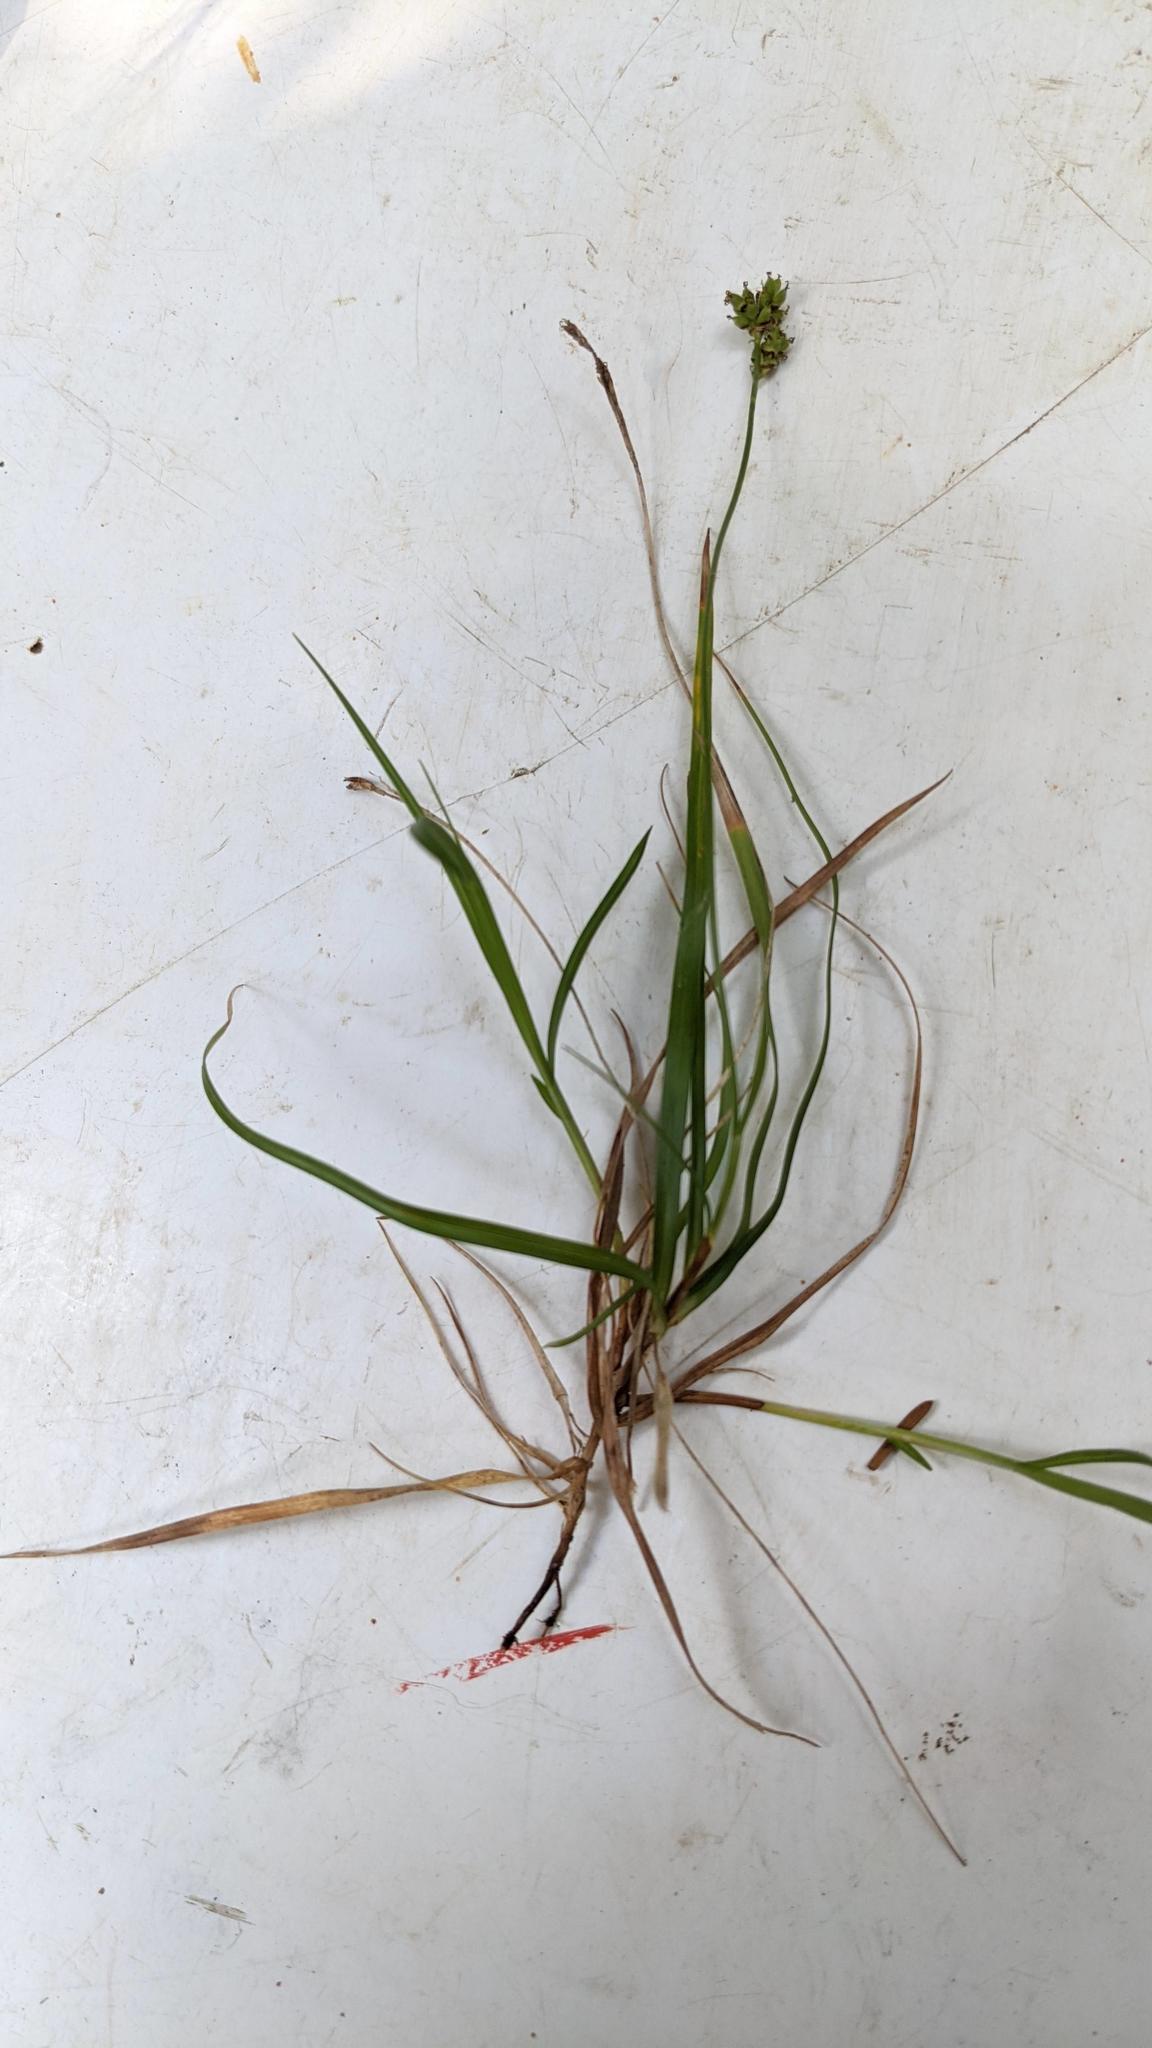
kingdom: Plantae
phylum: Tracheophyta
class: Liliopsida
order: Poales
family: Cyperaceae
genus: Carex
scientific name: Carex concinna
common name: Beautiful sedge
